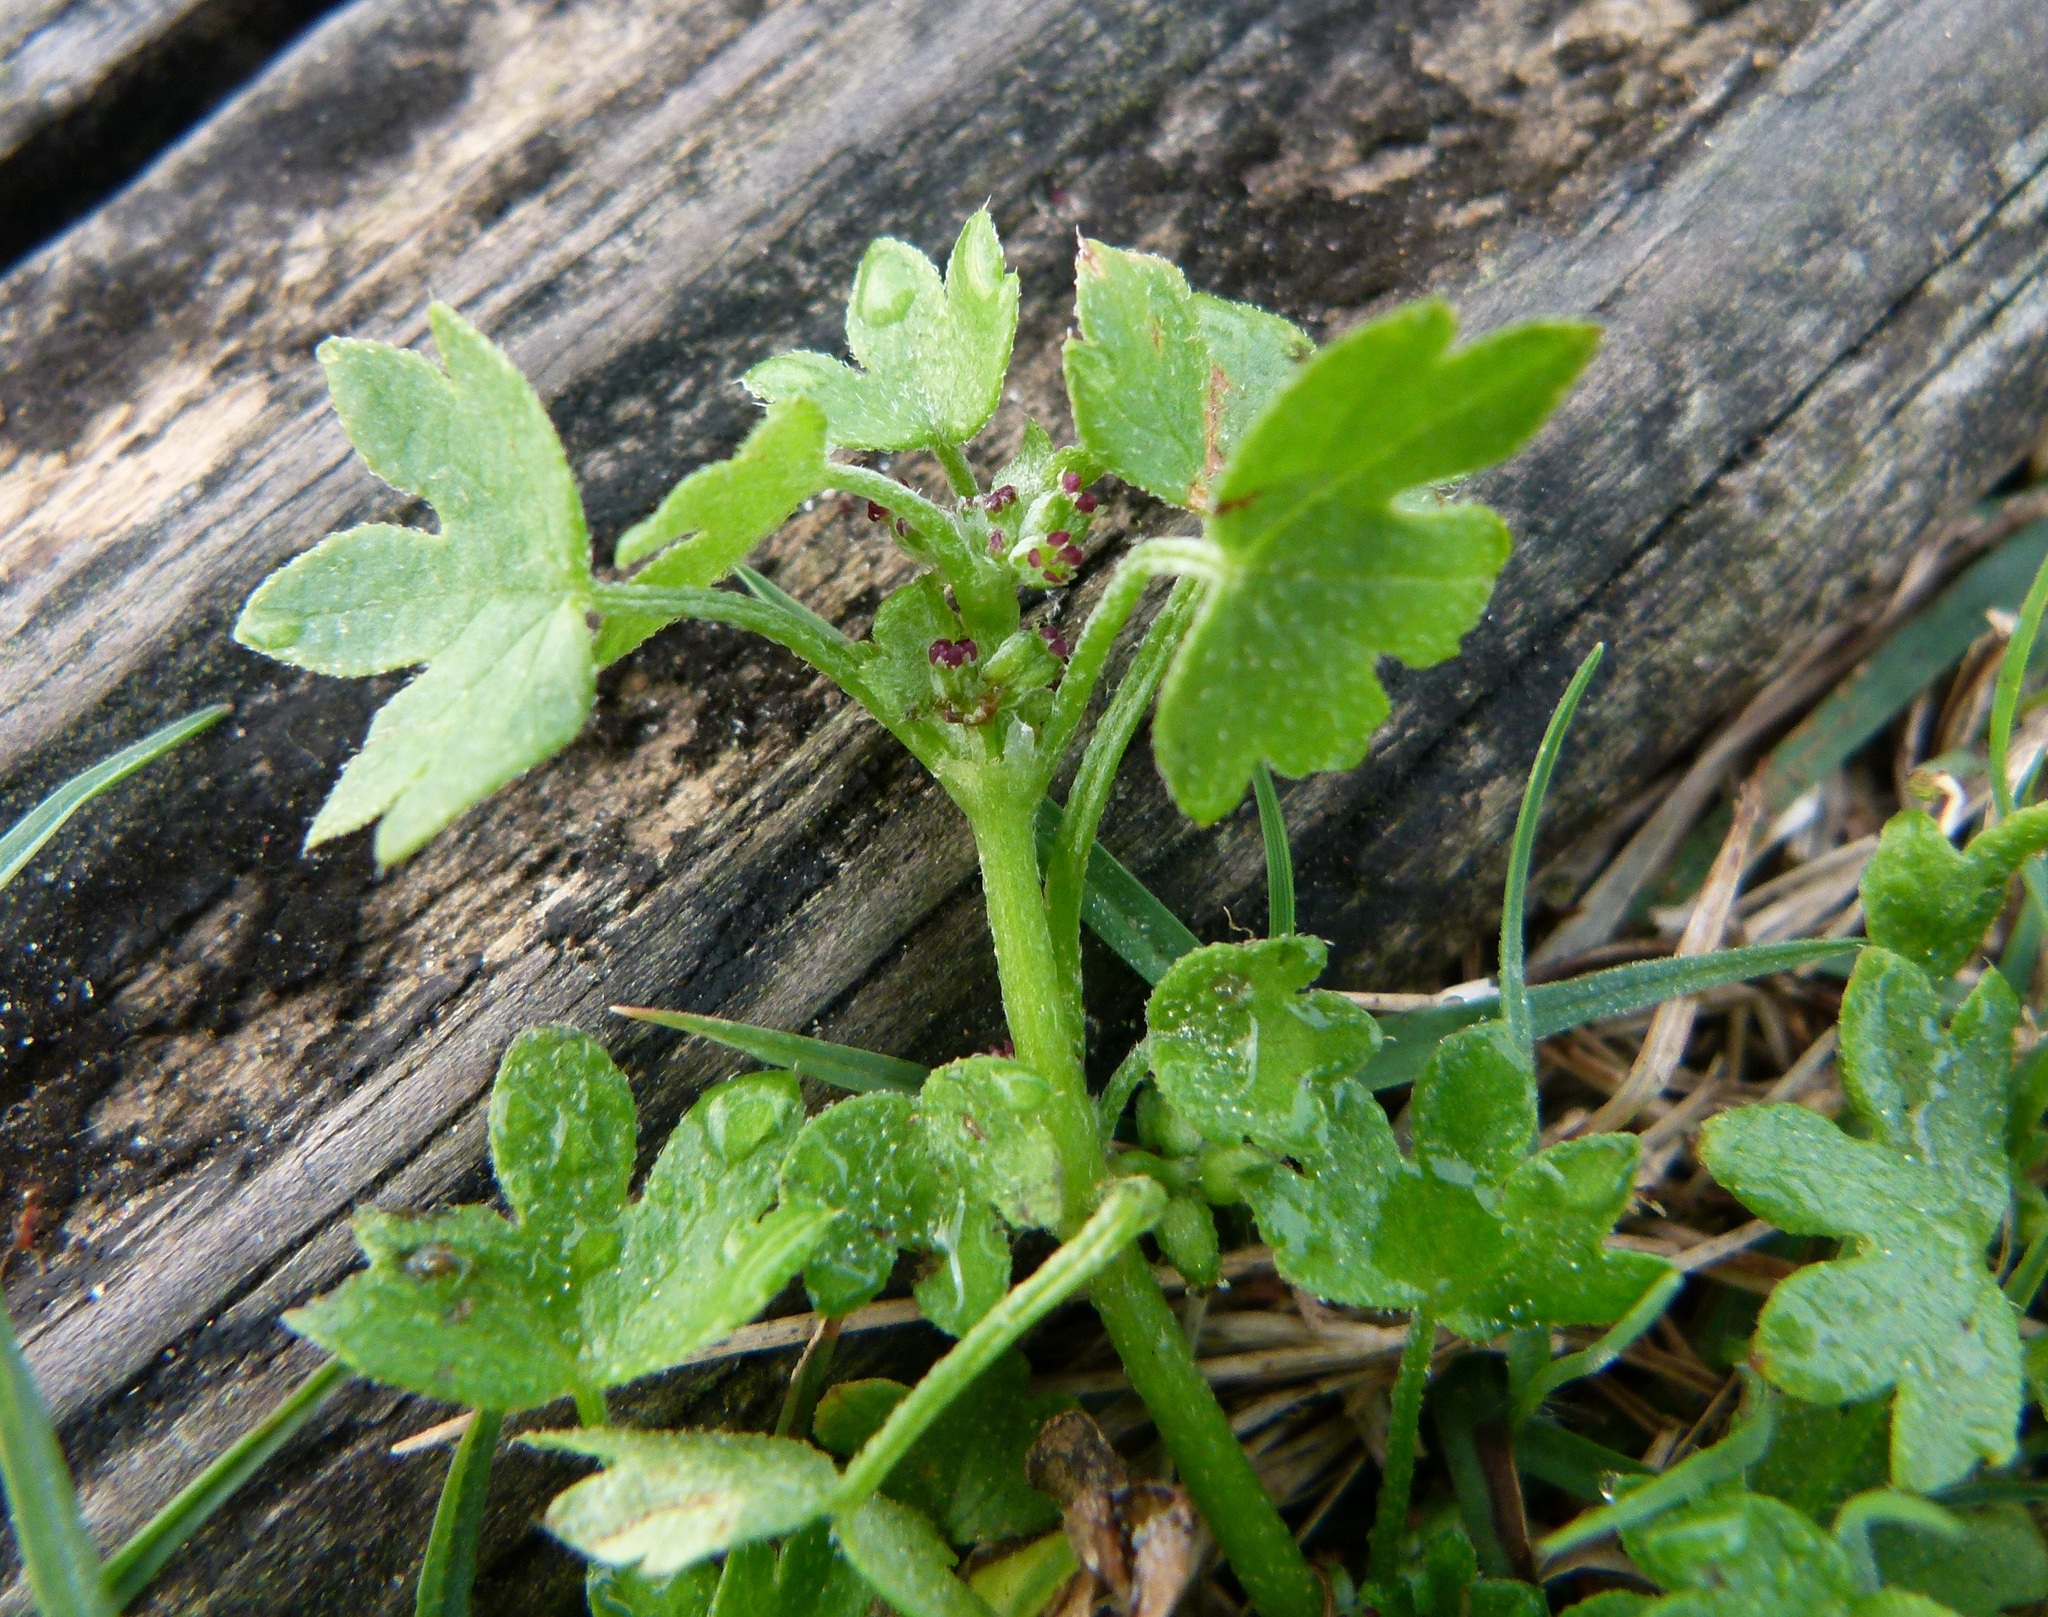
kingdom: Plantae
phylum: Tracheophyta
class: Magnoliopsida
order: Boraginales
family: Hydrophyllaceae
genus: Nemophila
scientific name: Nemophila aphylla
